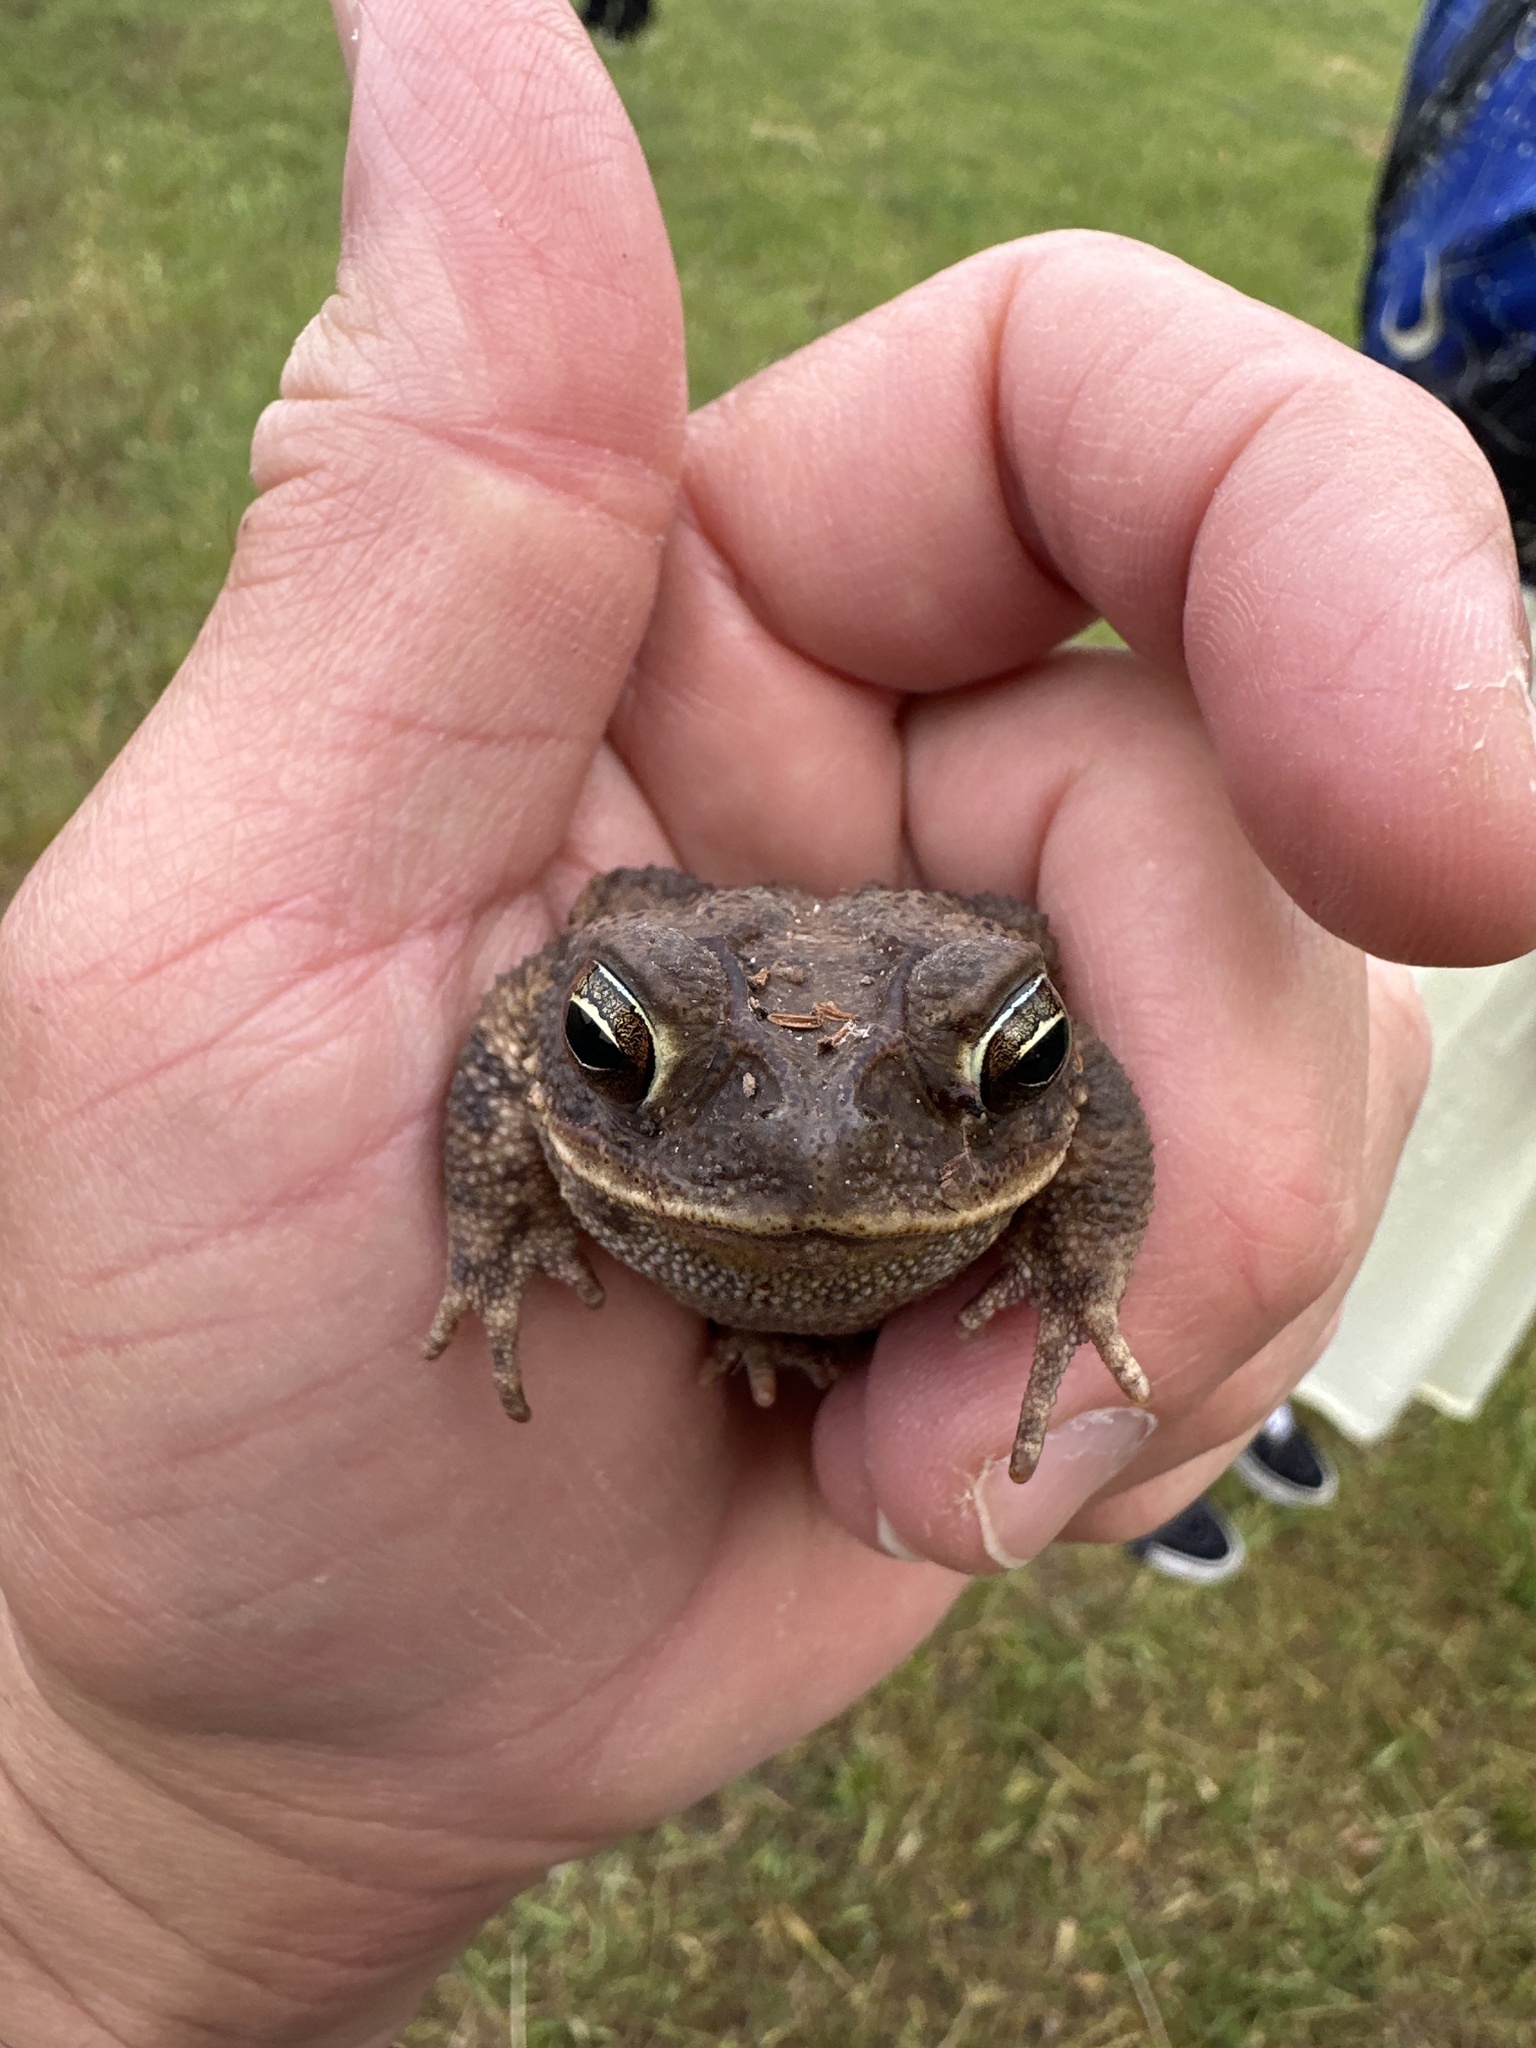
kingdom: Animalia
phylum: Chordata
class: Amphibia
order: Anura
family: Bufonidae
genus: Incilius
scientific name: Incilius nebulifer
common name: Gulf coast toad
